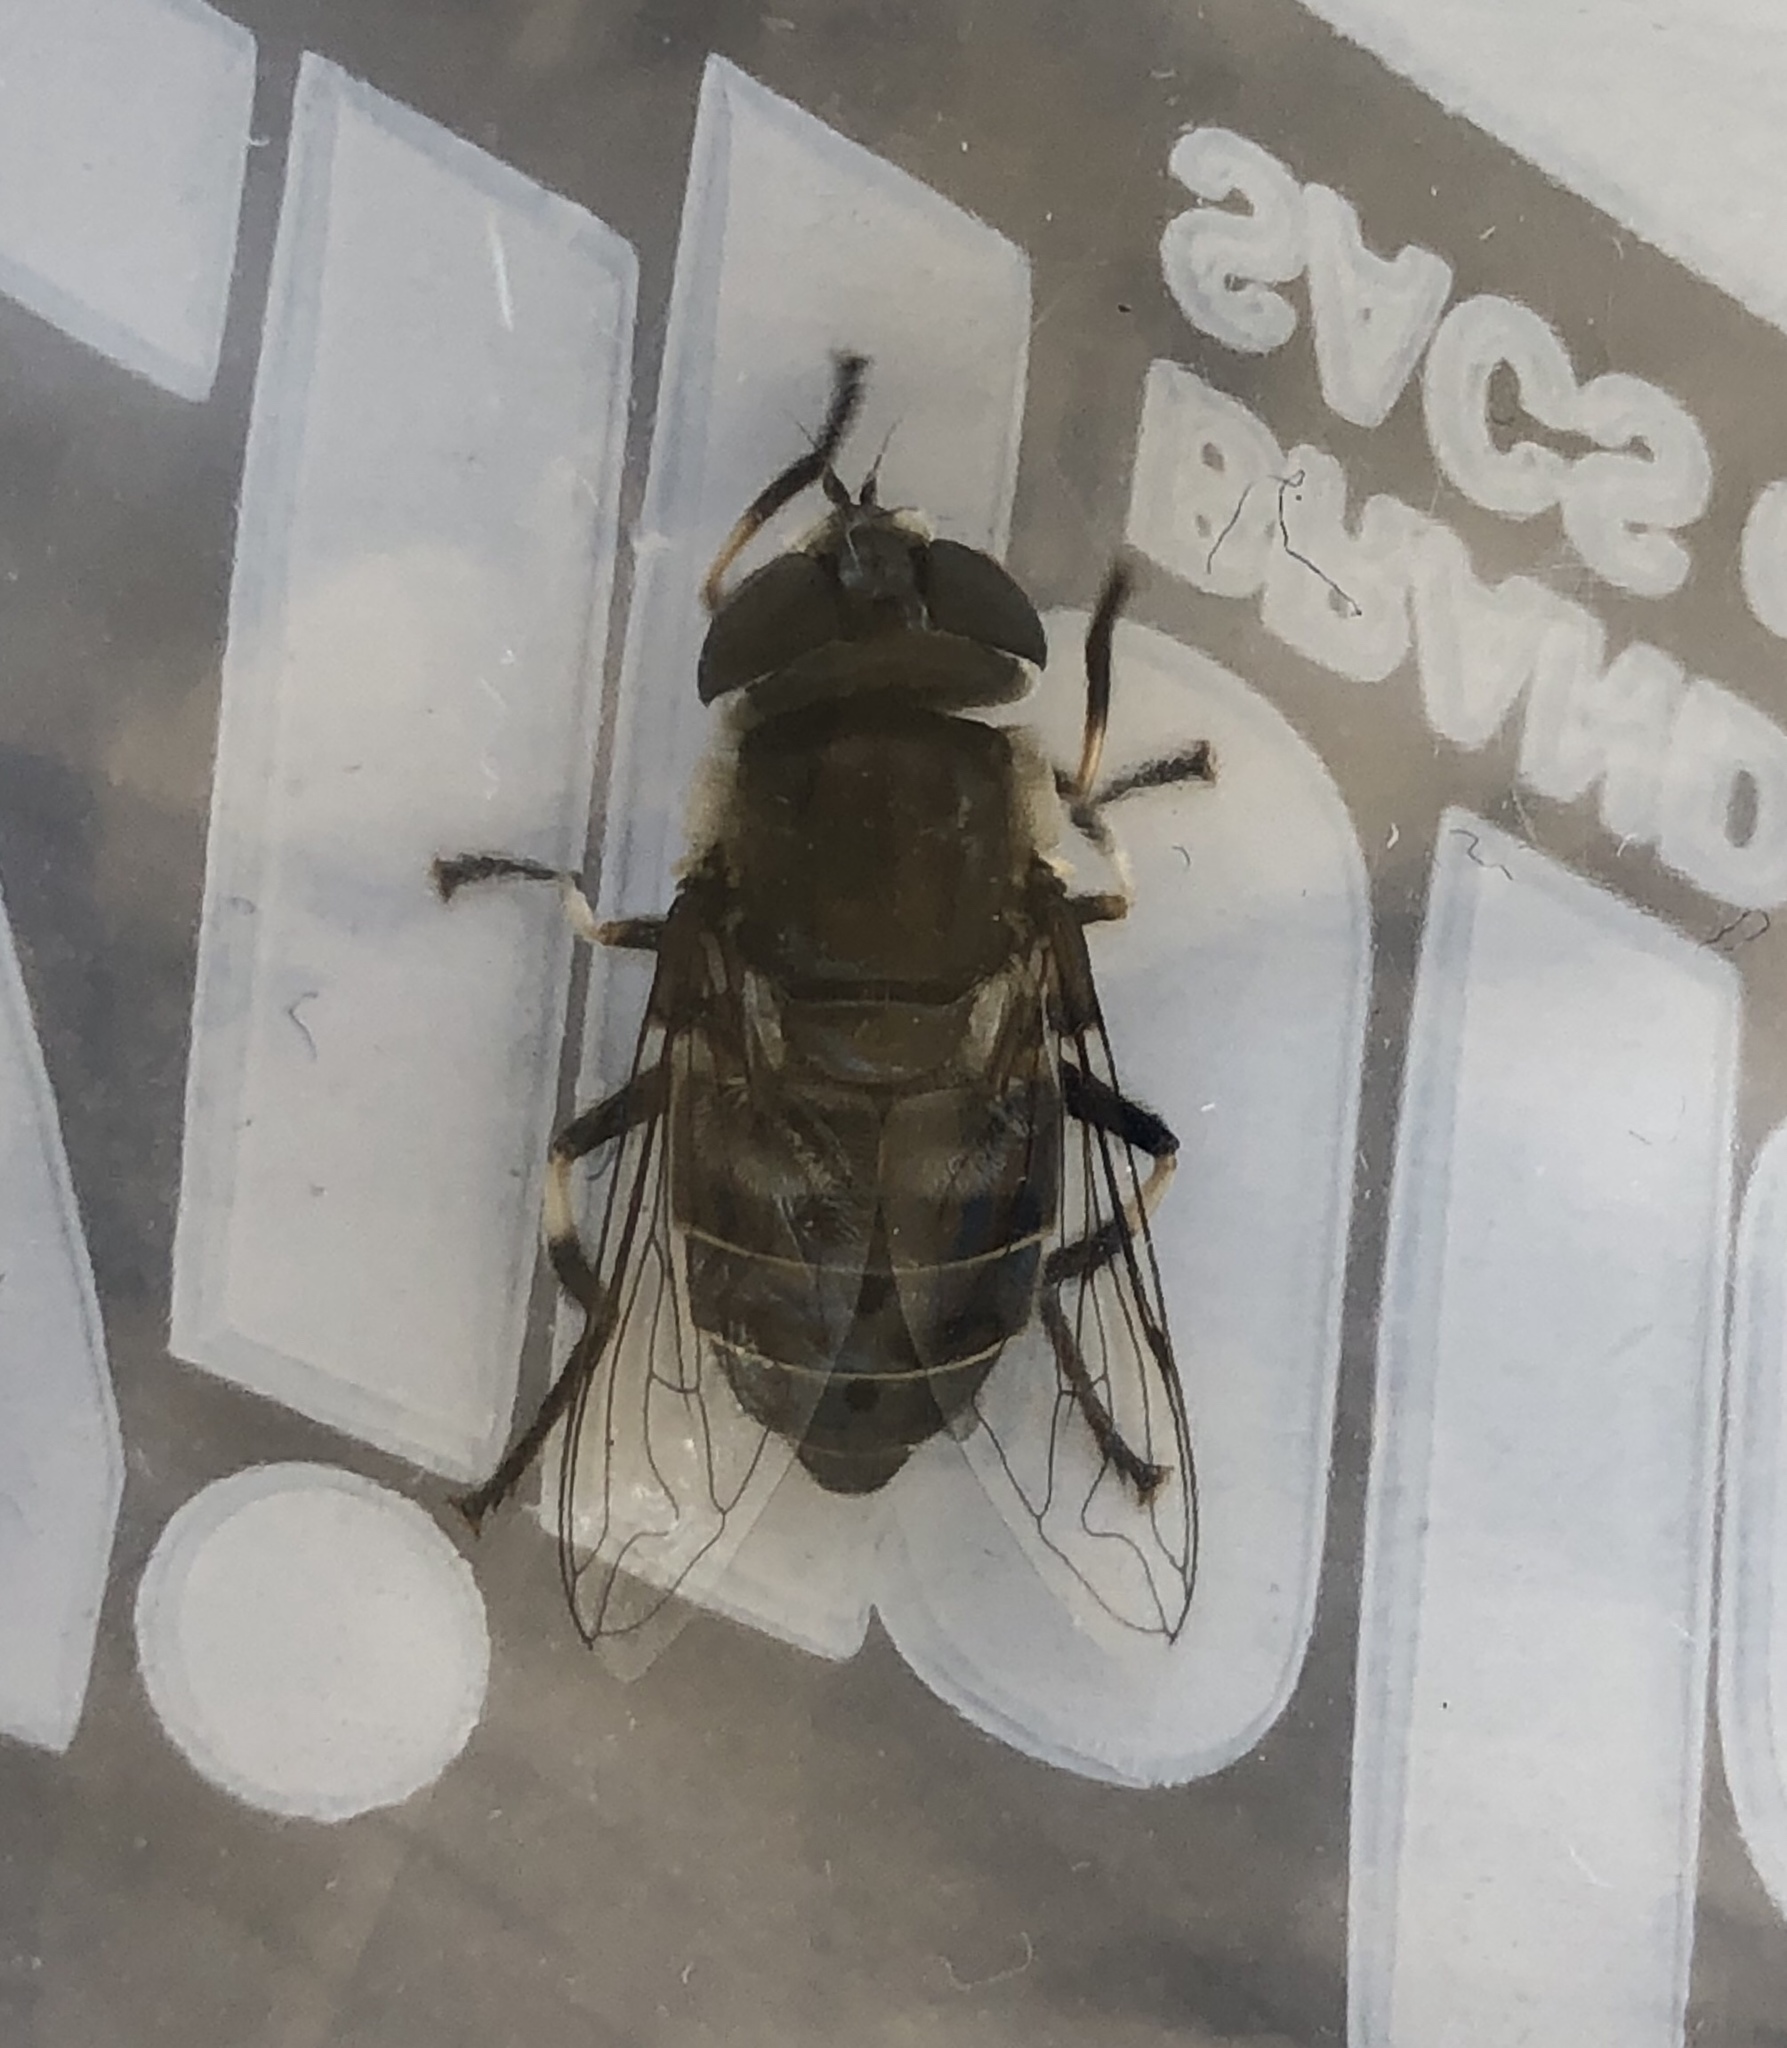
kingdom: Animalia
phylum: Arthropoda
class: Insecta
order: Diptera
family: Syrphidae
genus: Eristalis
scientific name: Eristalis dimidiata
